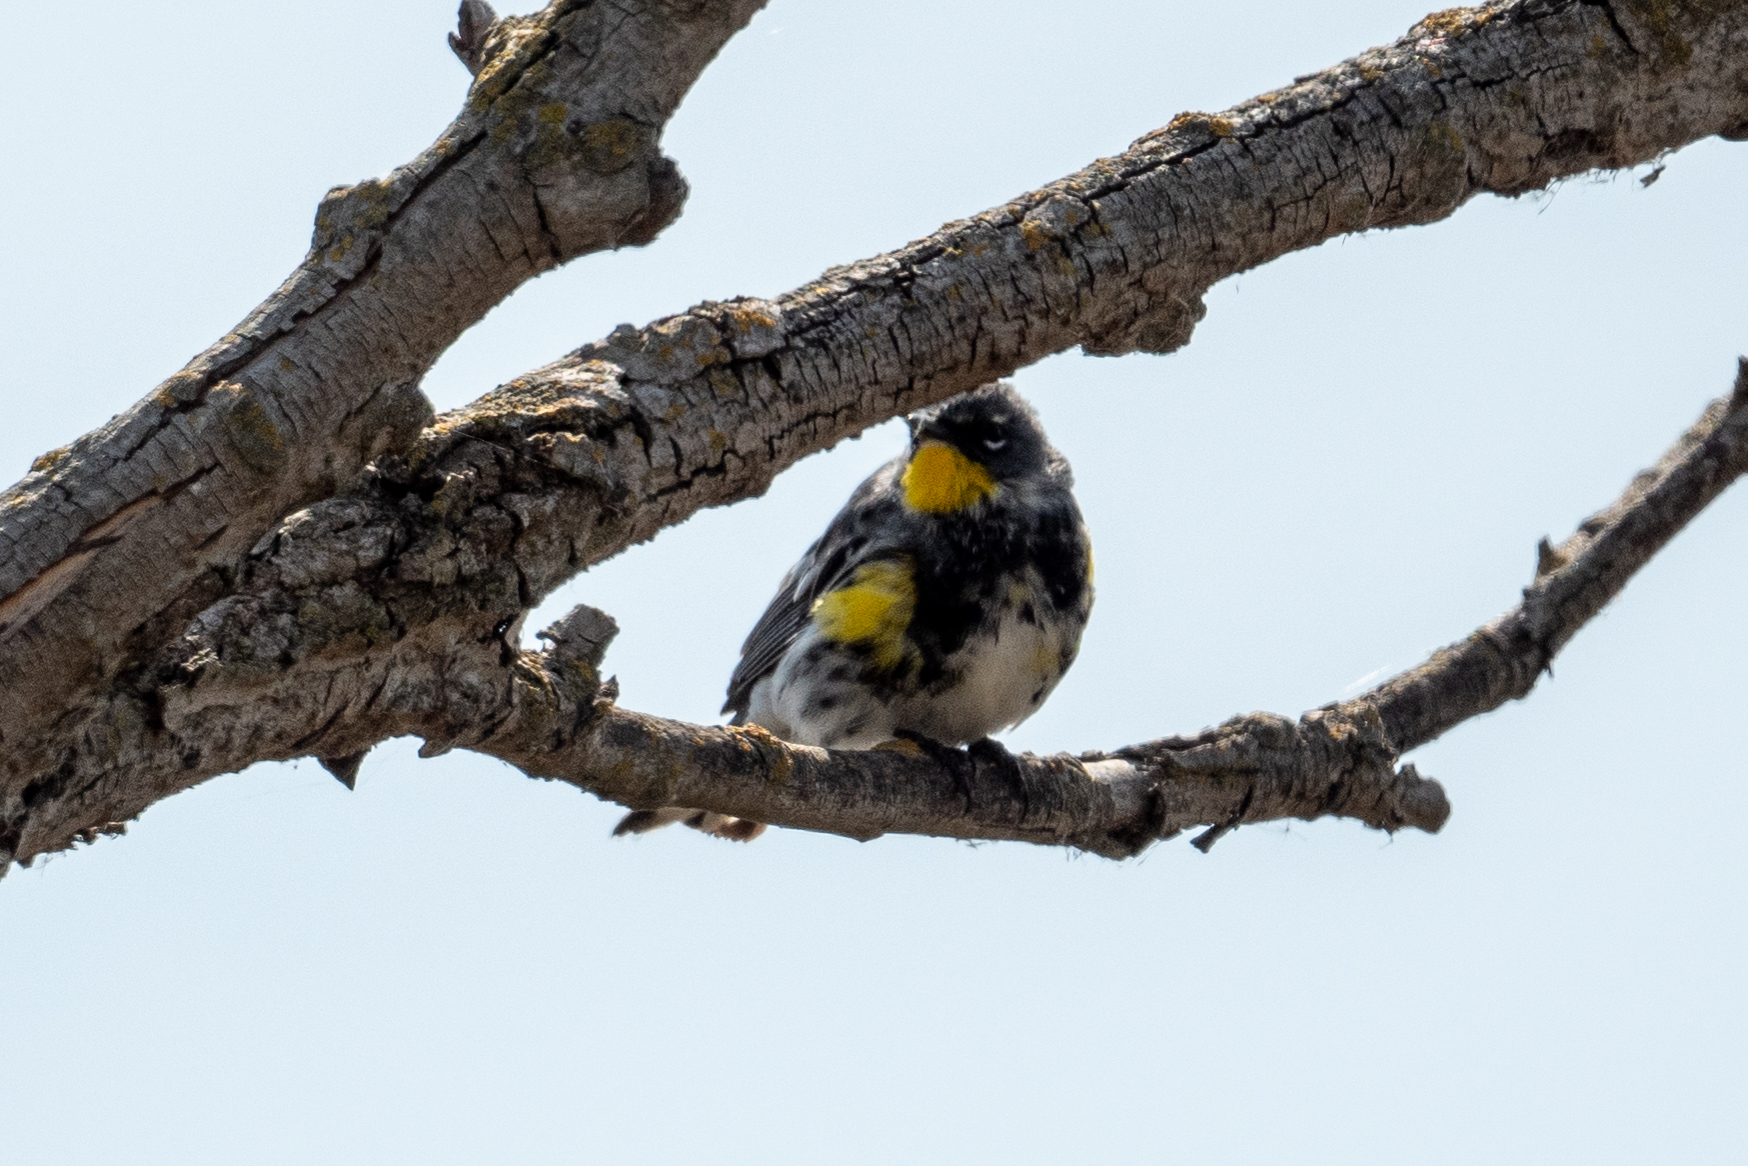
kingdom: Animalia
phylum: Chordata
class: Aves
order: Passeriformes
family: Parulidae
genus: Setophaga
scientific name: Setophaga coronata
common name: Myrtle warbler
